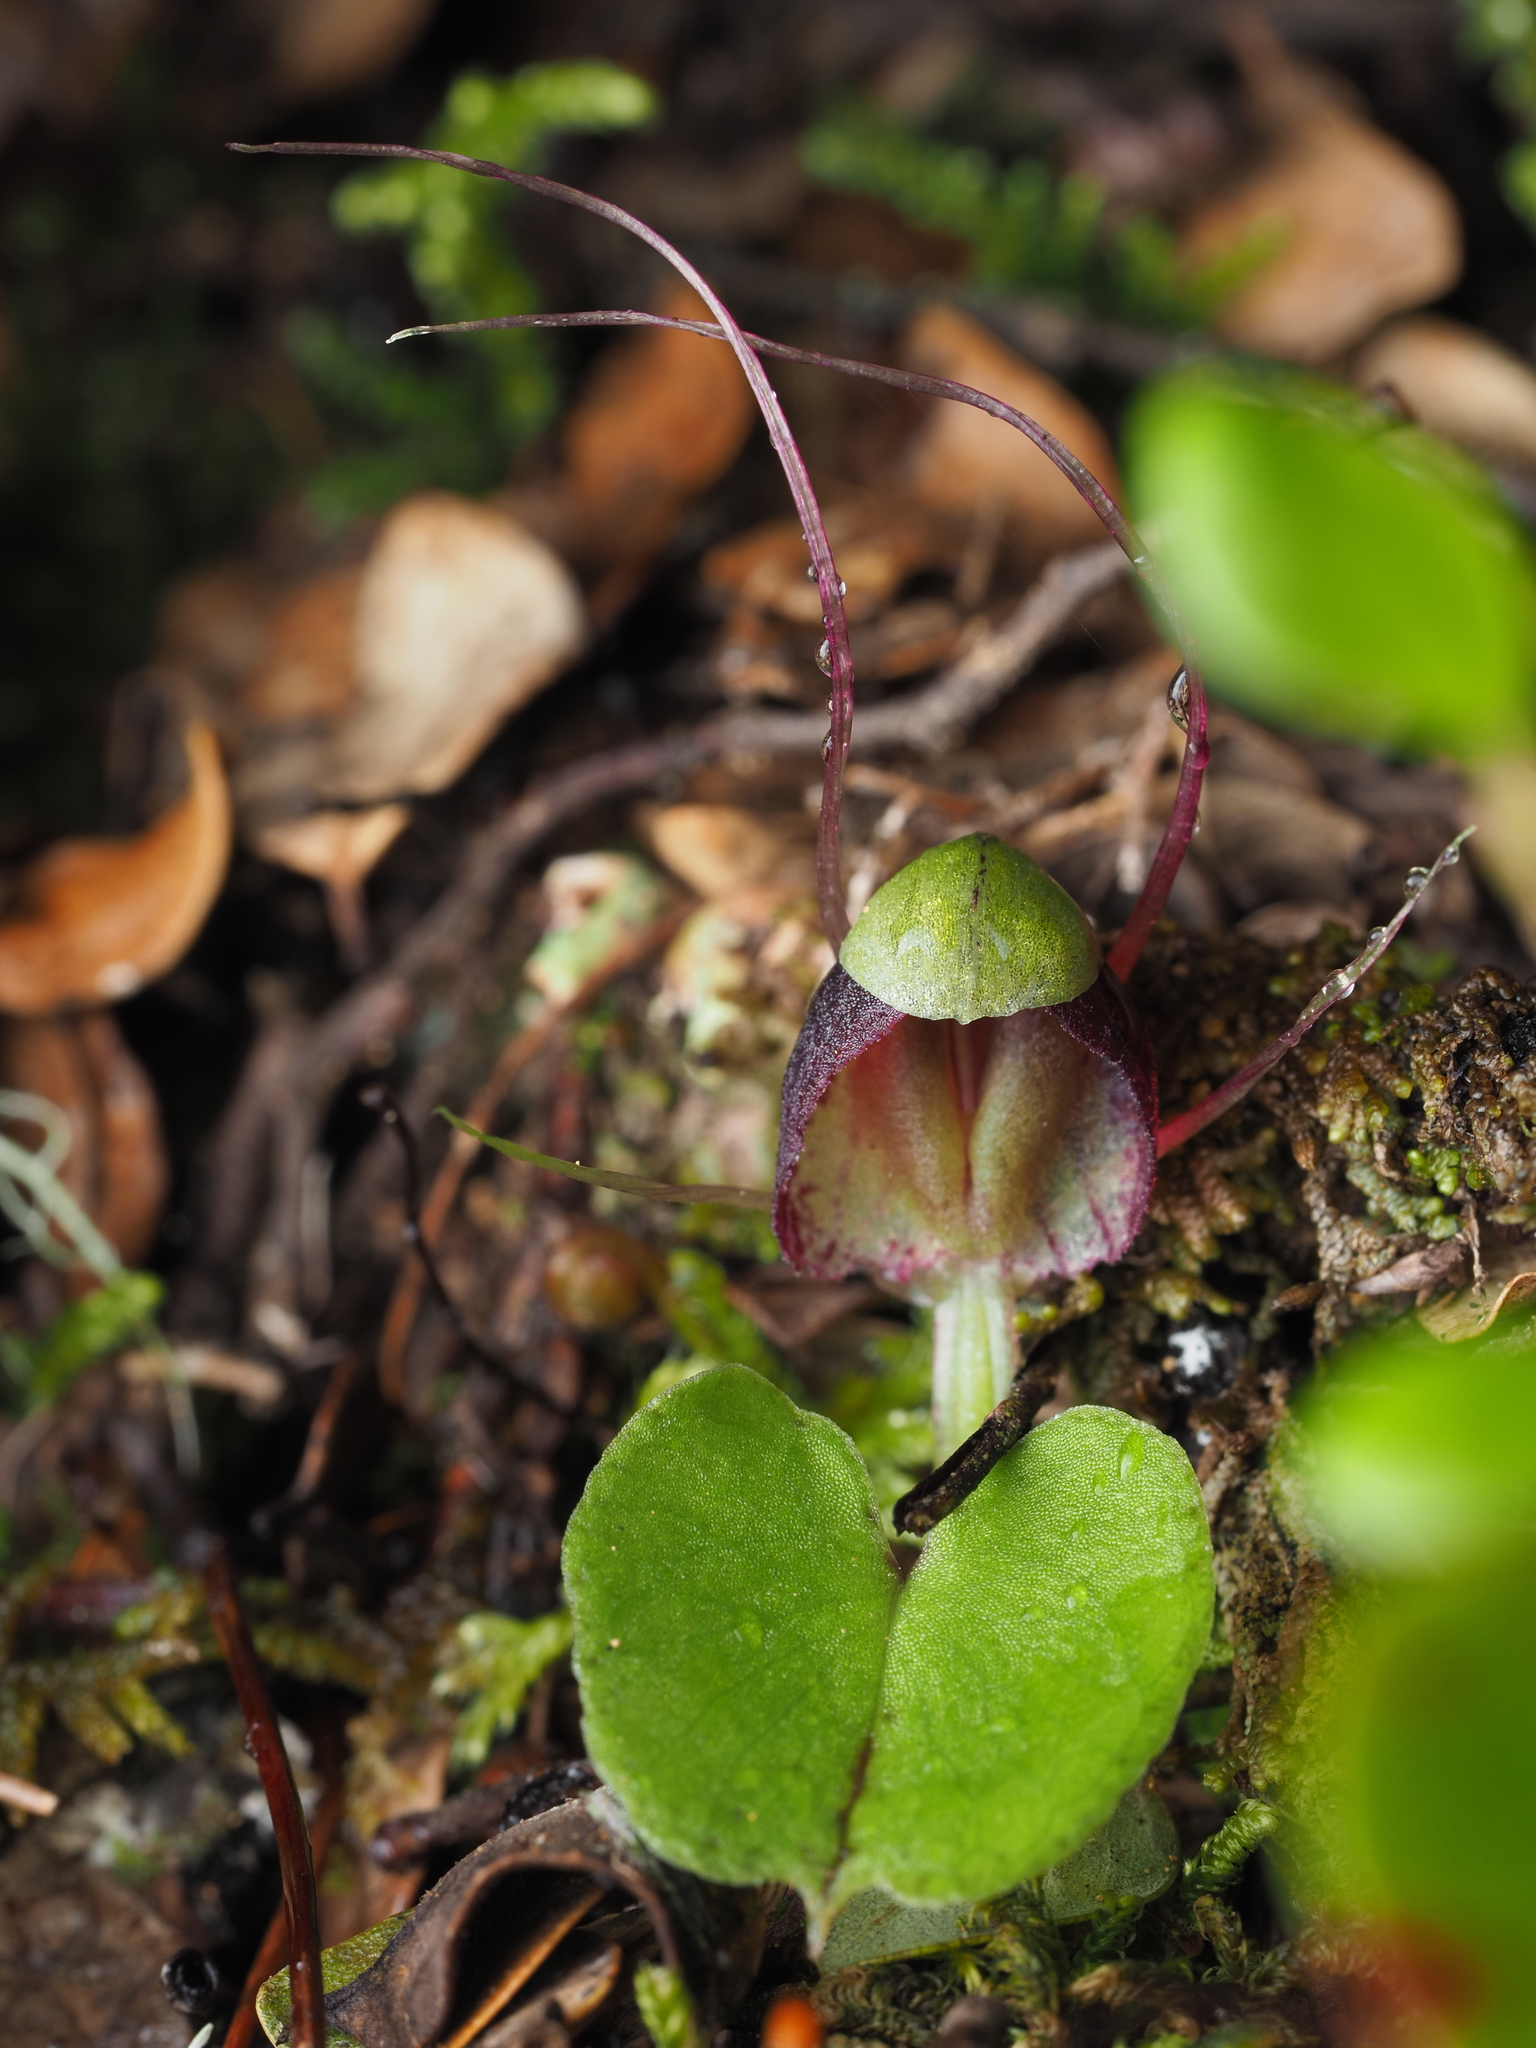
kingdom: Plantae
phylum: Tracheophyta
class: Liliopsida
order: Asparagales
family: Orchidaceae
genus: Corybas
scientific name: Corybas vitreus
